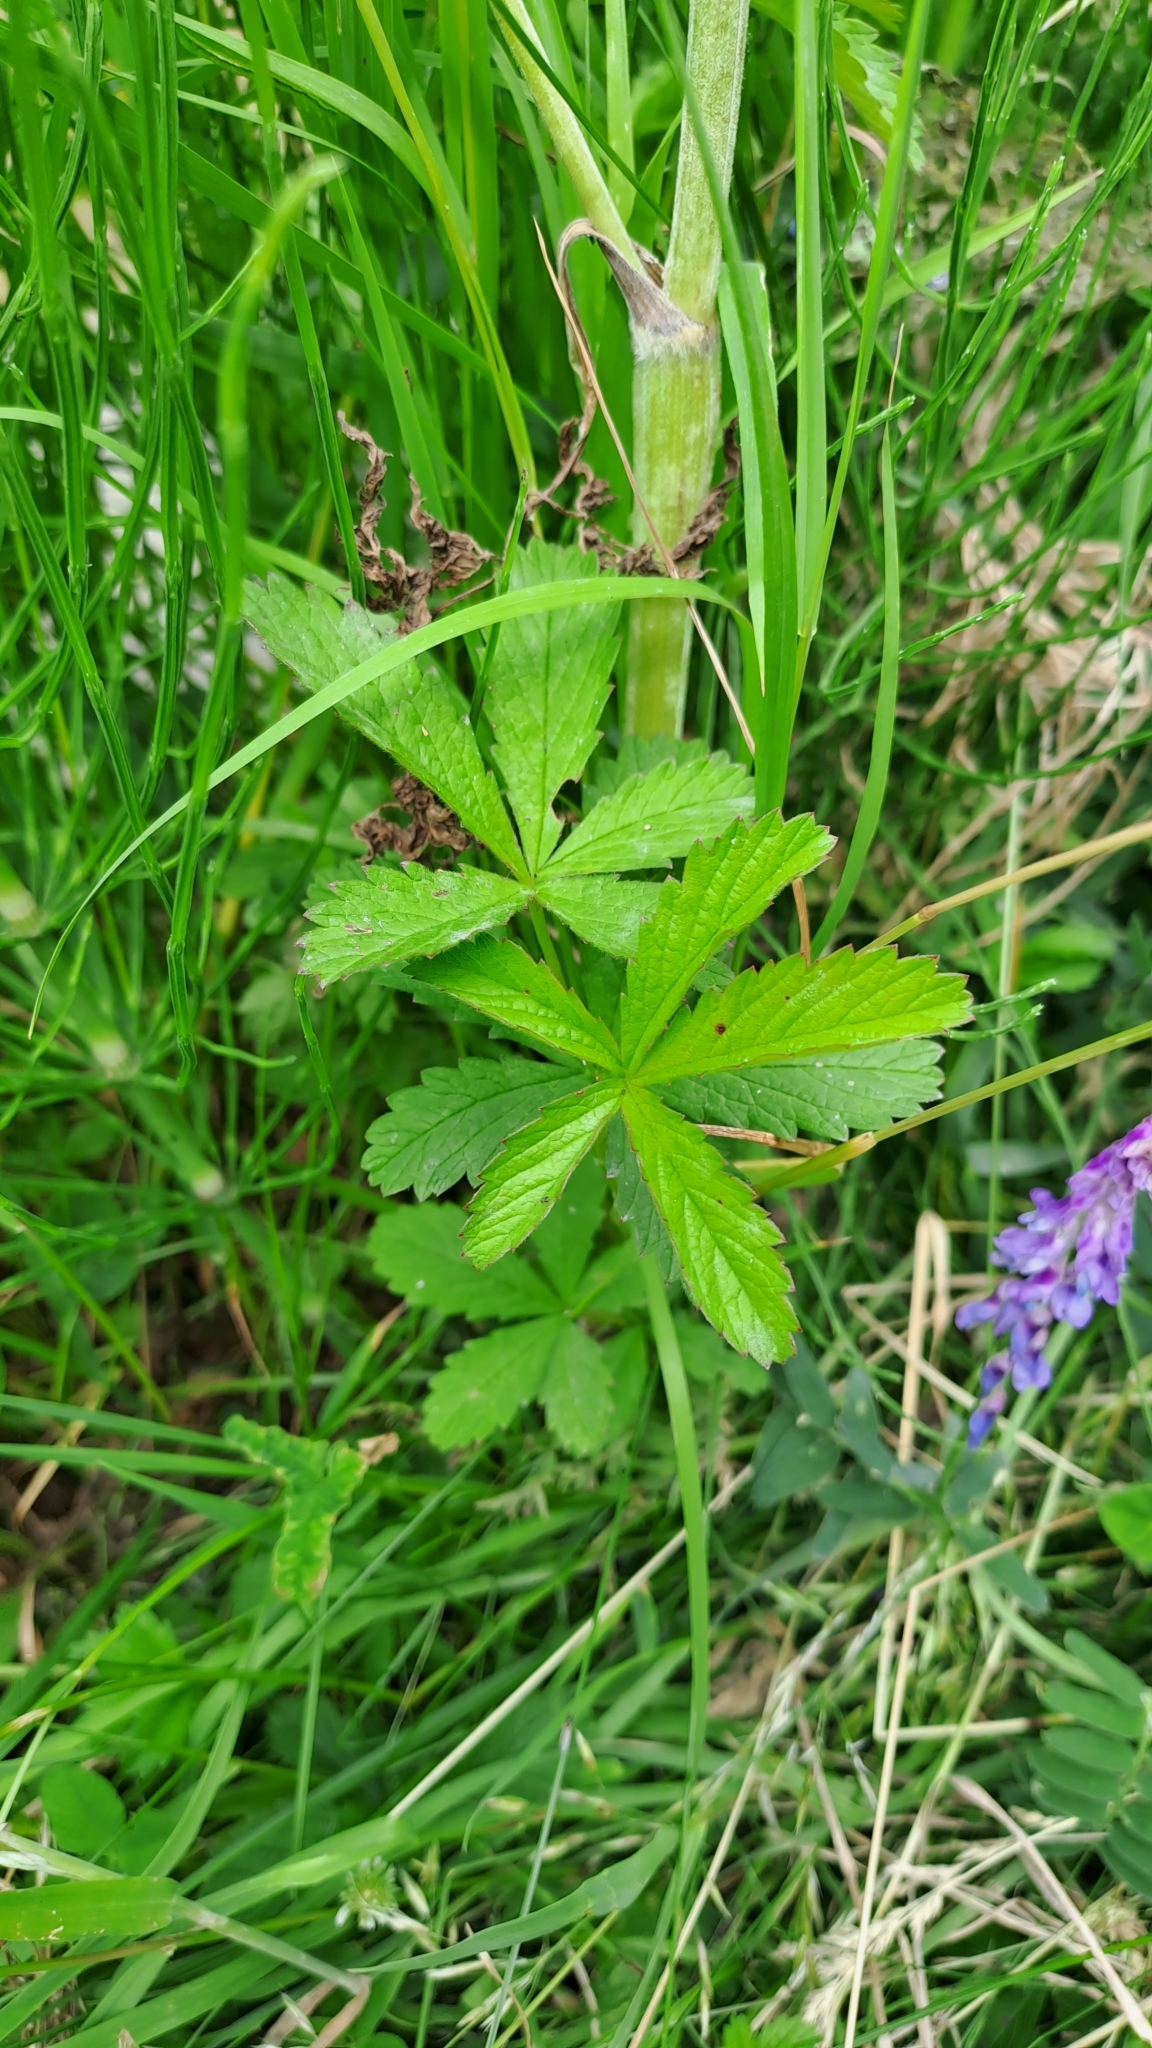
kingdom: Plantae
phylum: Tracheophyta
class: Magnoliopsida
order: Rosales
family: Rosaceae
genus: Potentilla
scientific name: Potentilla reptans
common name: Creeping cinquefoil
